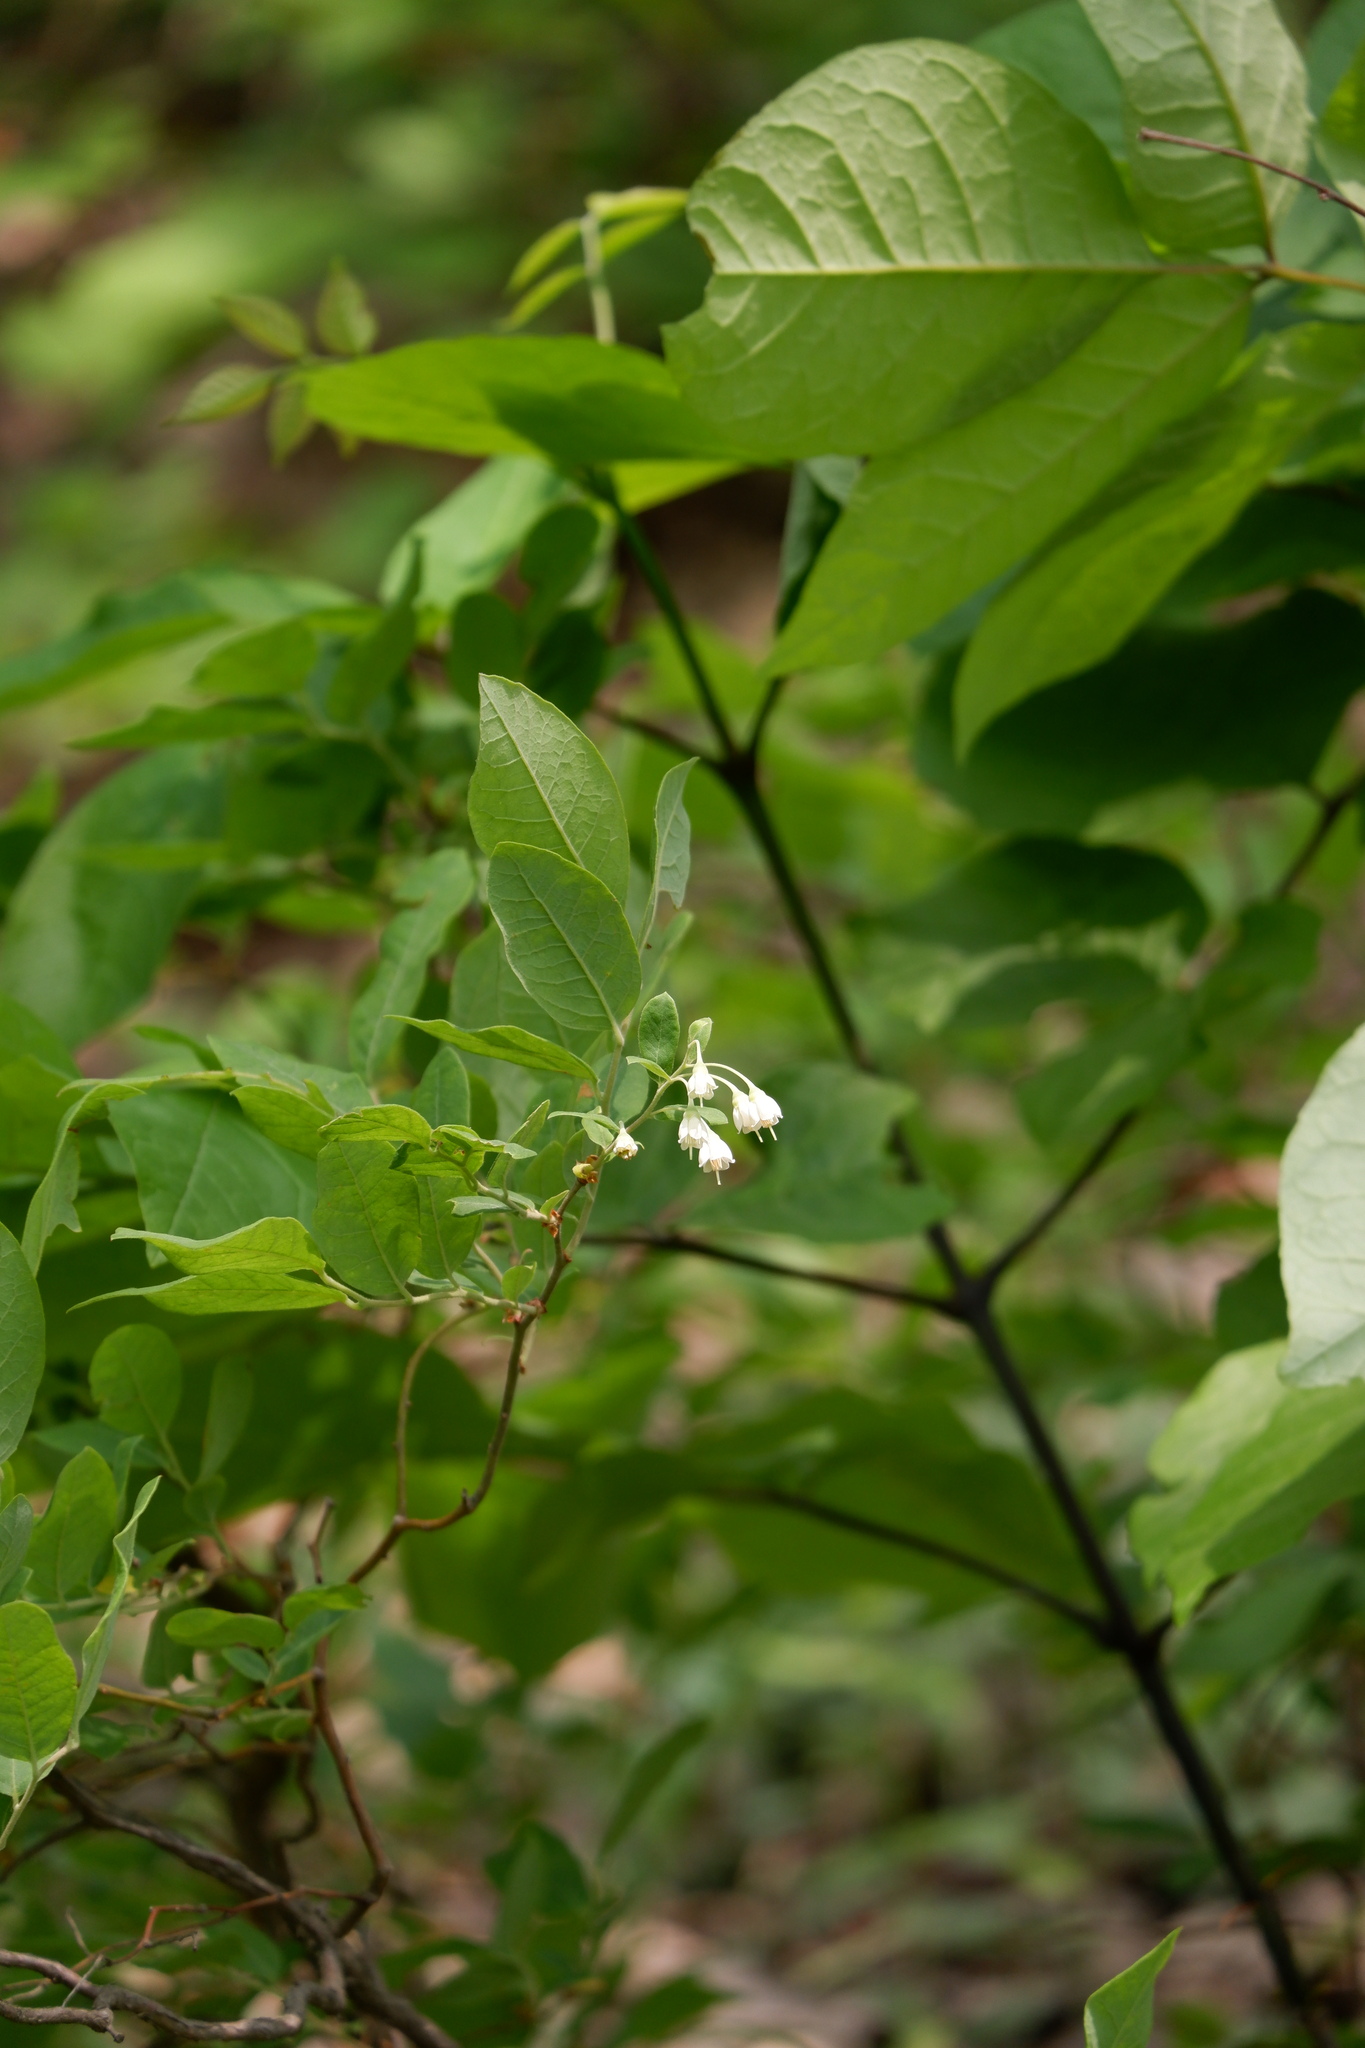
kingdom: Plantae
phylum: Tracheophyta
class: Magnoliopsida
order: Ericales
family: Ericaceae
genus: Vaccinium
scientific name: Vaccinium stamineum
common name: Deerberry
